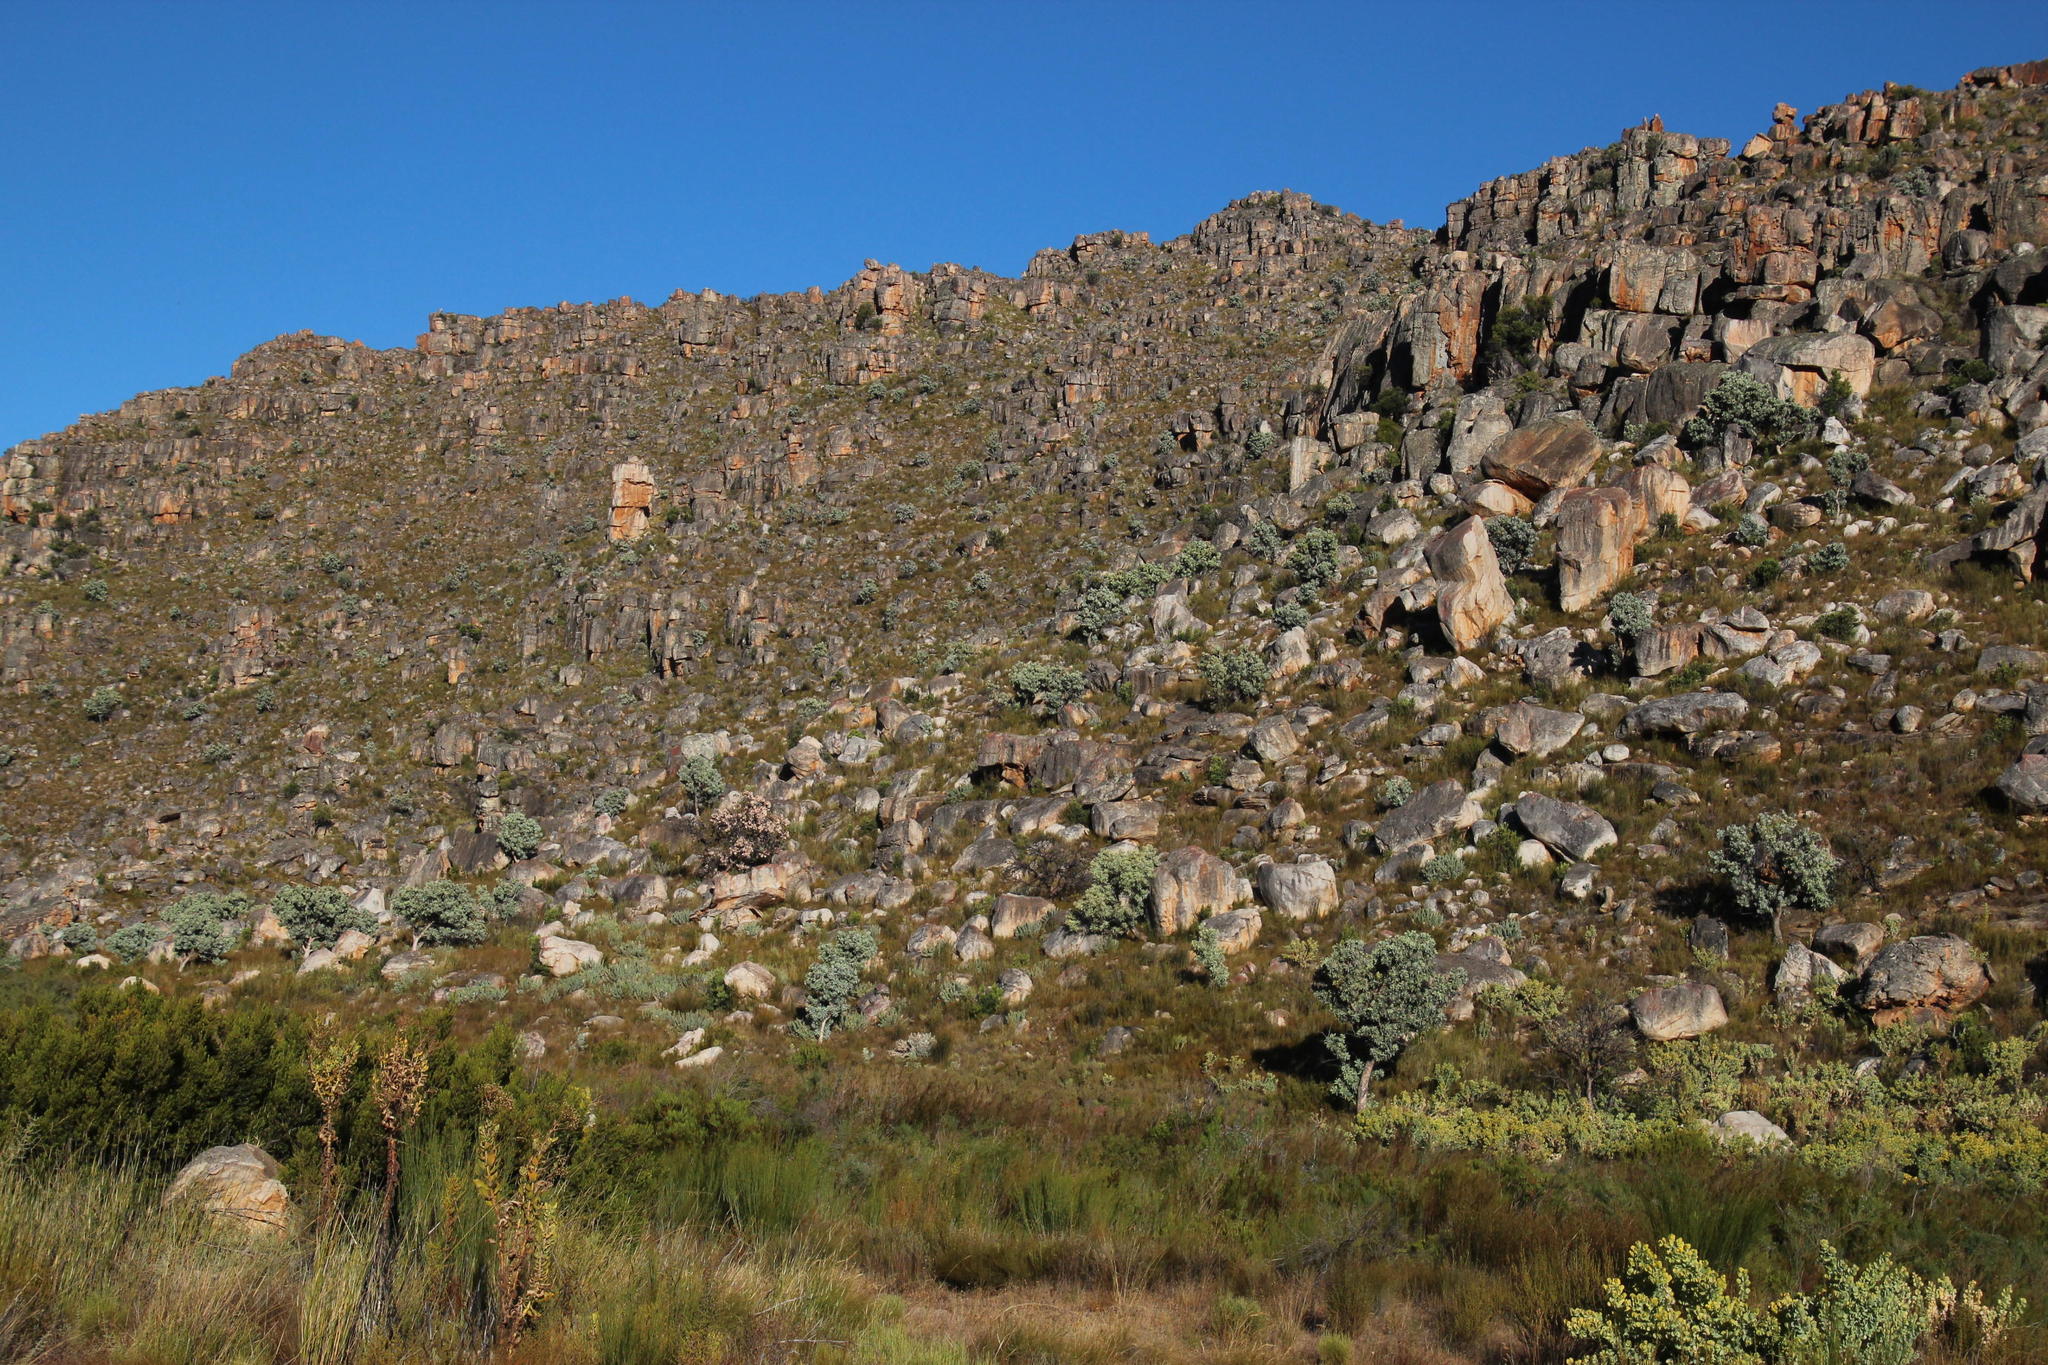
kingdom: Plantae
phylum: Tracheophyta
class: Magnoliopsida
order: Proteales
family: Proteaceae
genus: Protea
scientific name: Protea nitida
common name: Tree protea
